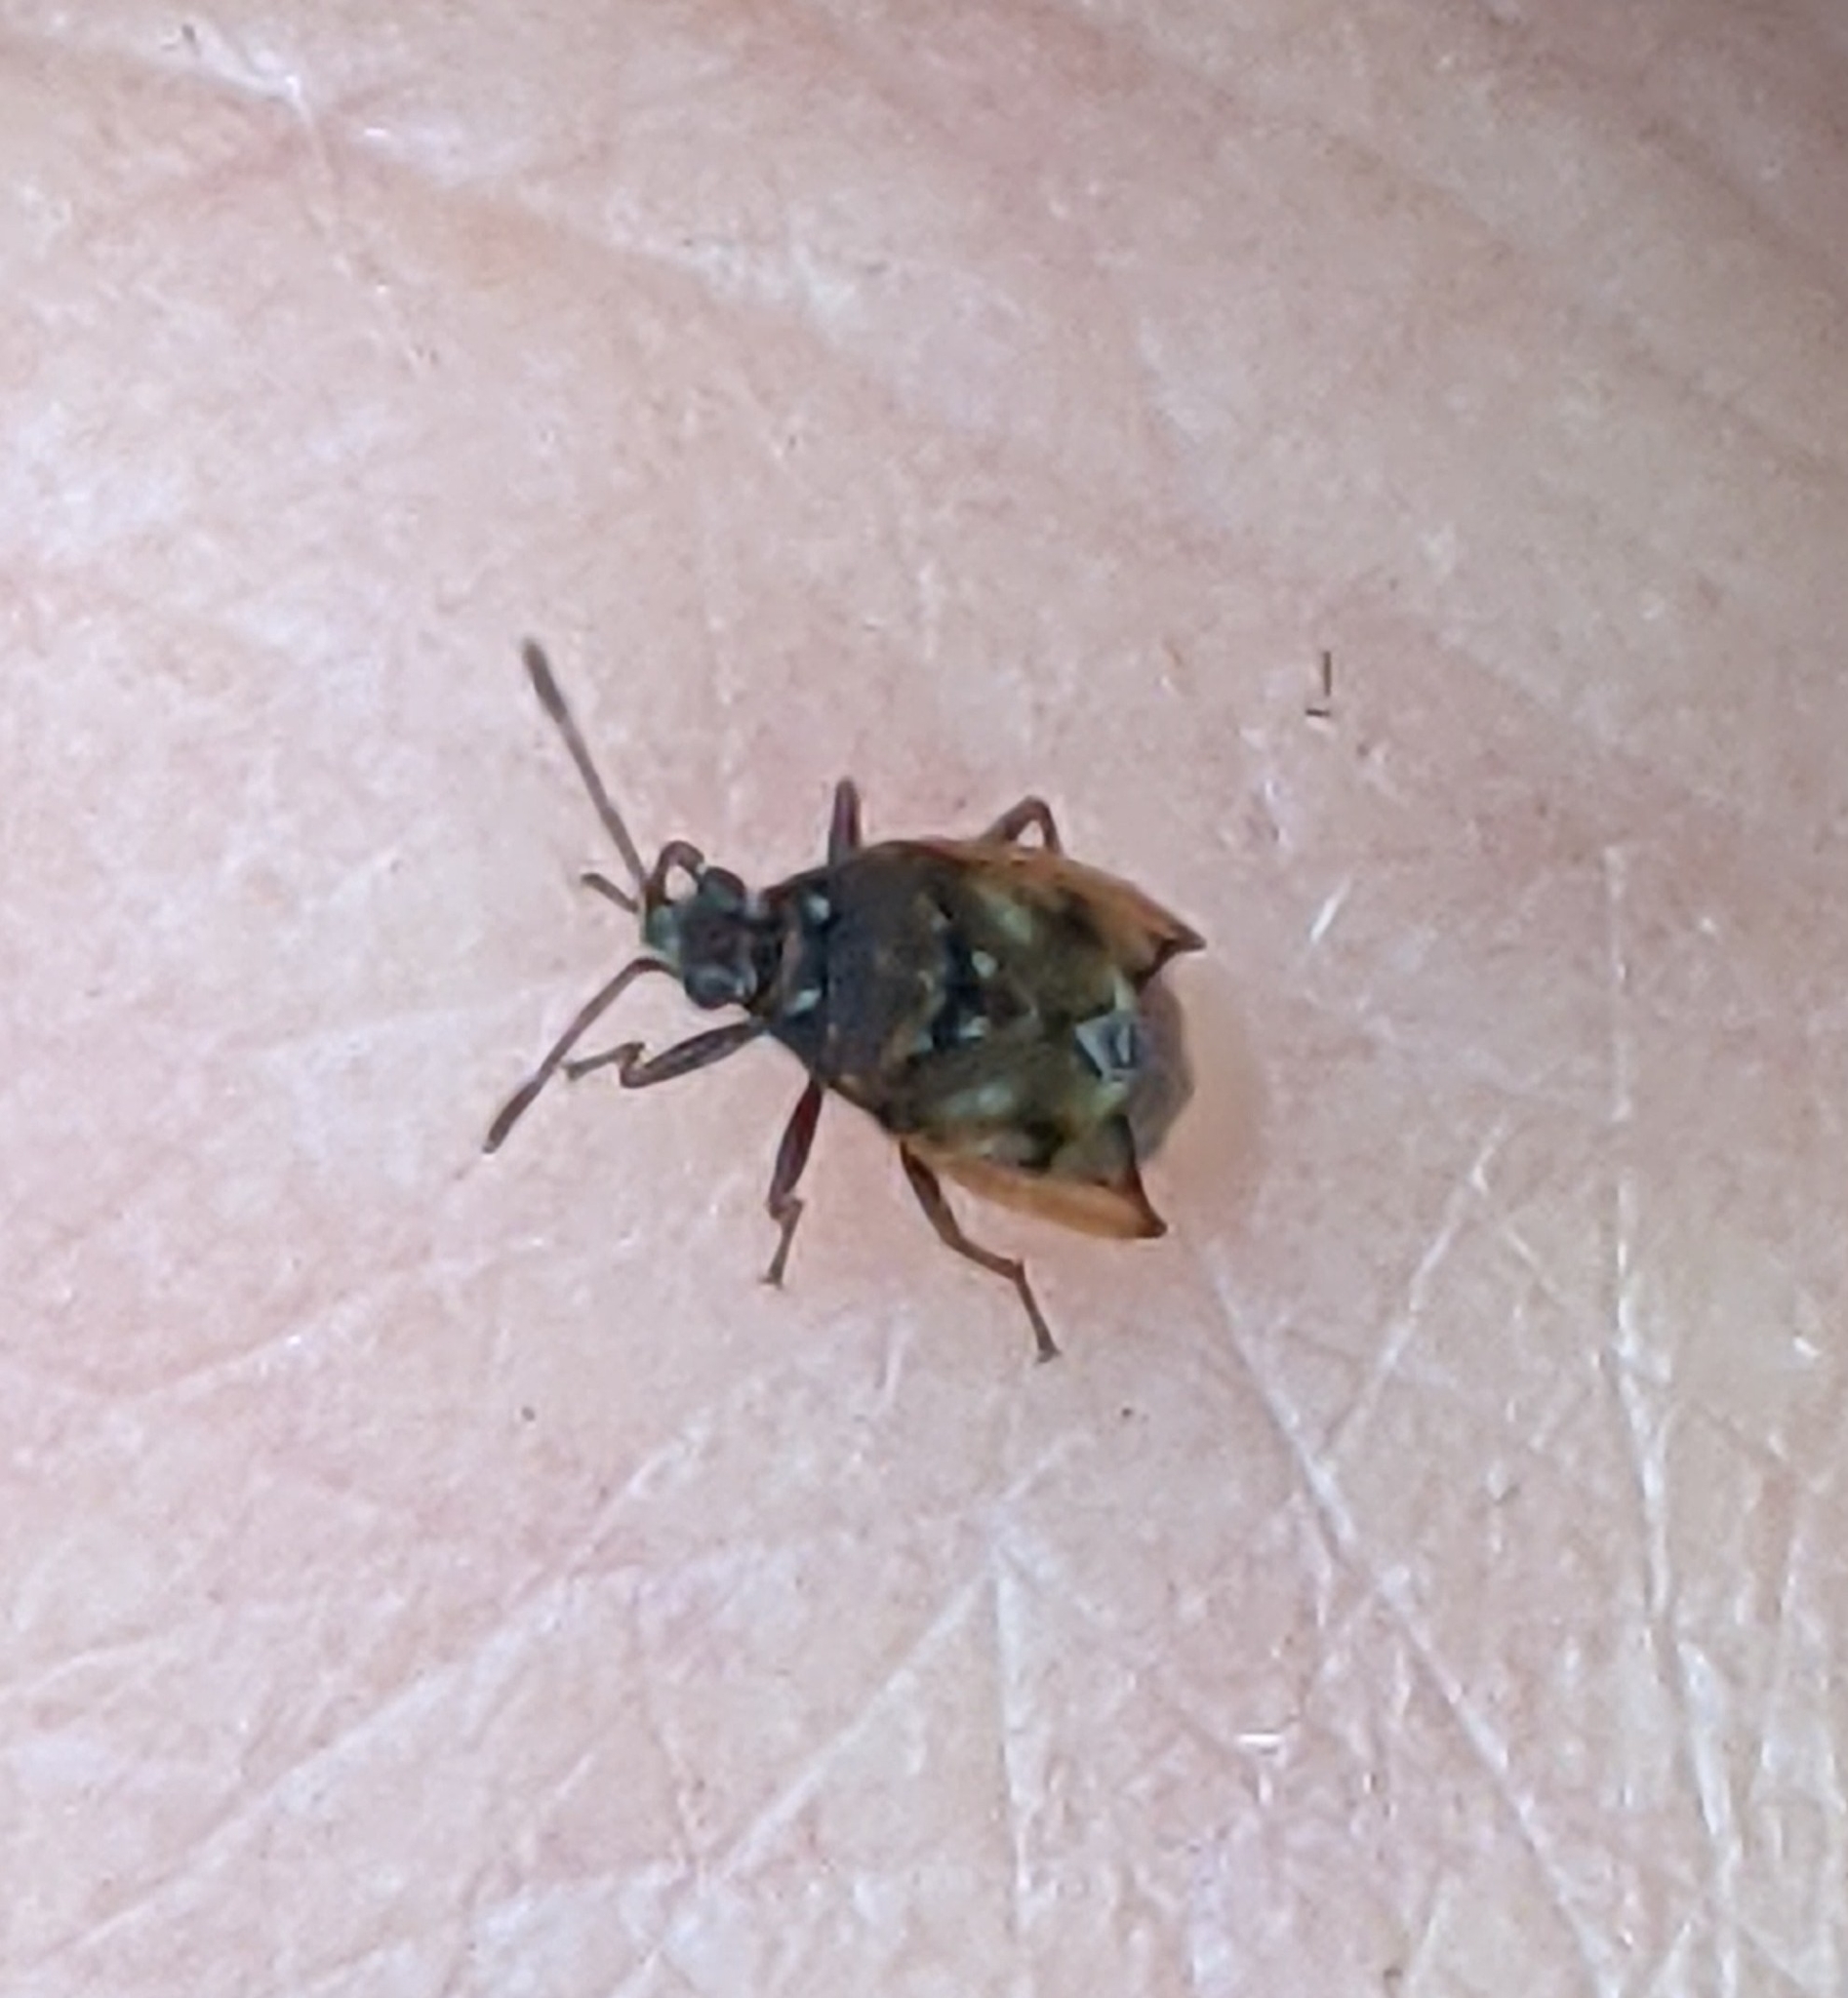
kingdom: Animalia
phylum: Arthropoda
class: Insecta
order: Hemiptera
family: Lygaeidae
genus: Kleidocerys
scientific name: Kleidocerys resedae
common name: Birch catkin bug
